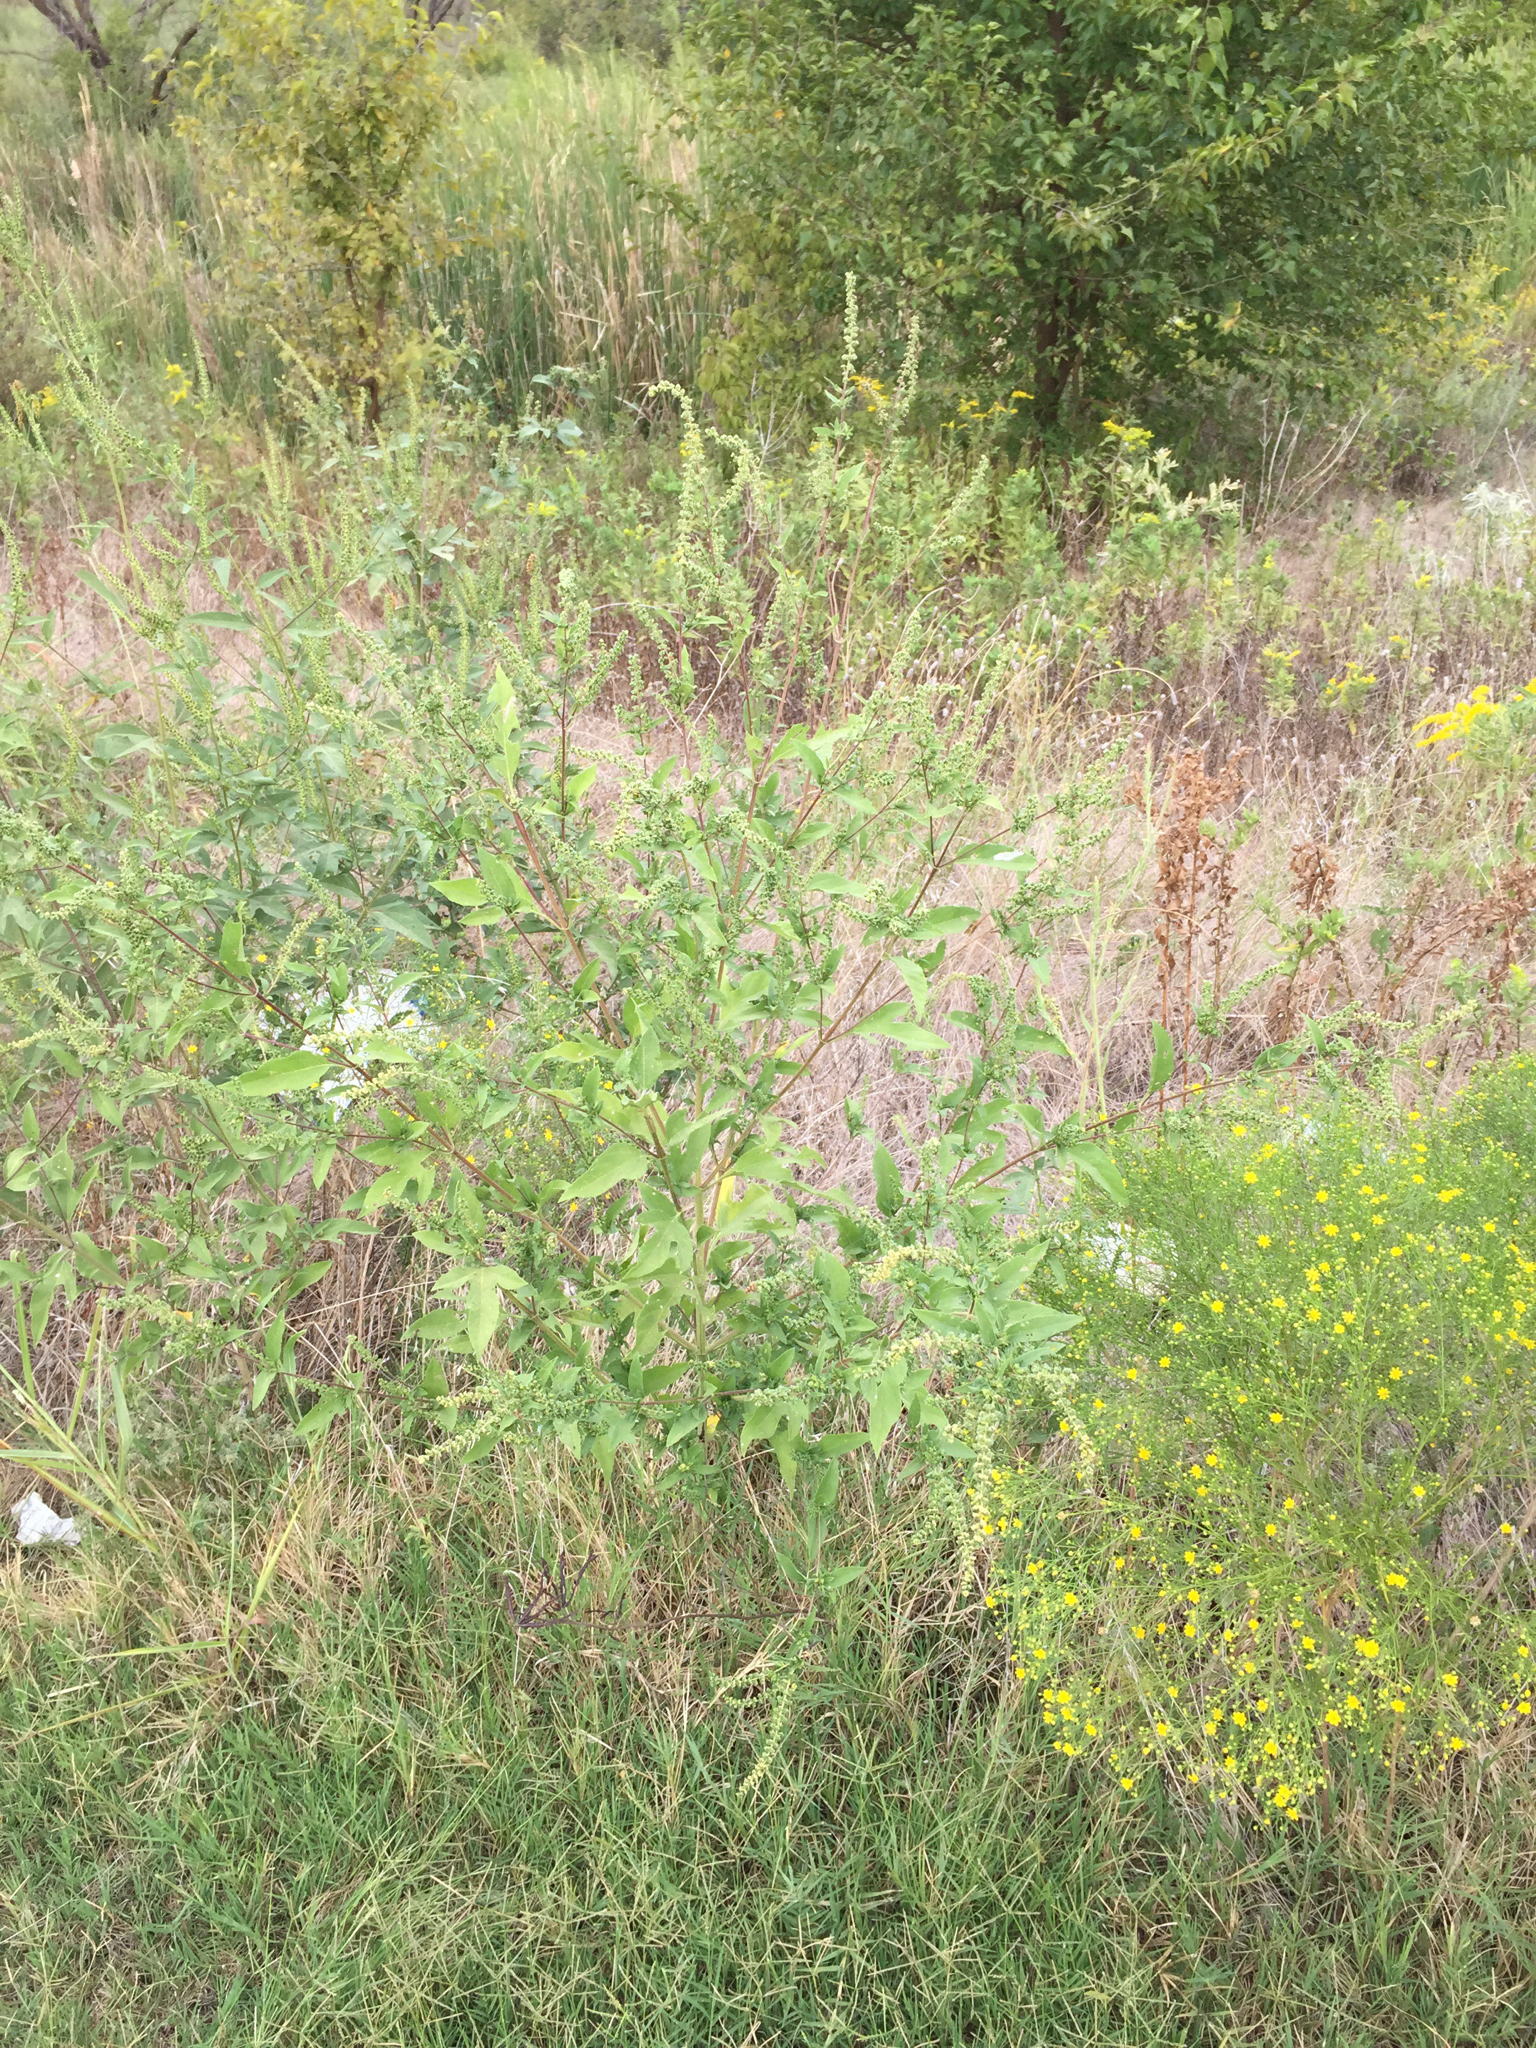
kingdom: Plantae
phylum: Tracheophyta
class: Magnoliopsida
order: Asterales
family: Asteraceae
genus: Ambrosia
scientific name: Ambrosia trifida
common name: Giant ragweed
